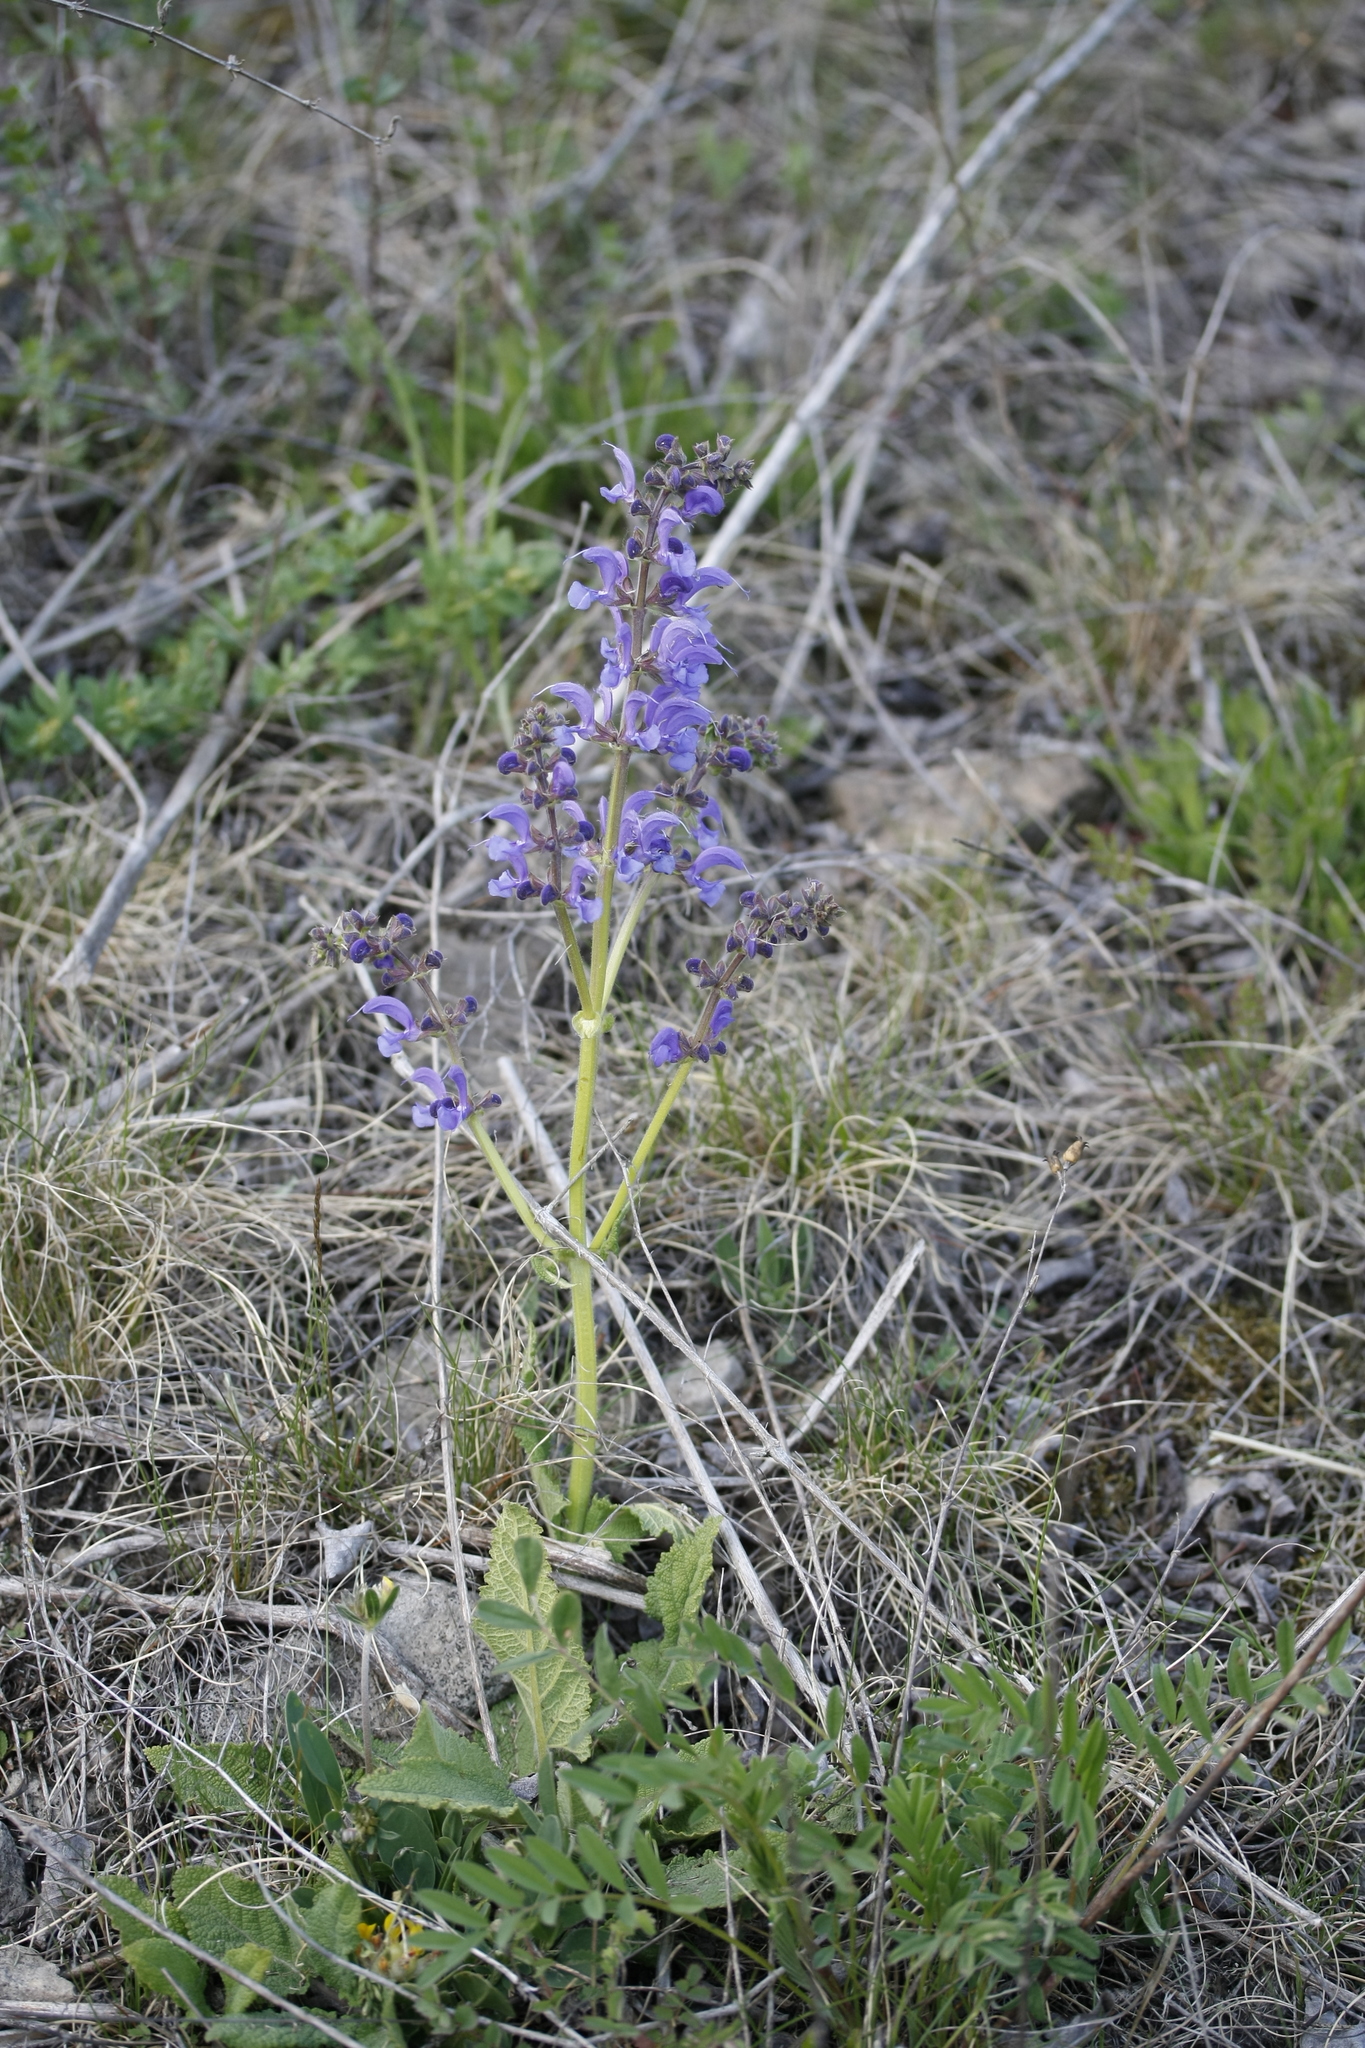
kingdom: Plantae
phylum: Tracheophyta
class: Magnoliopsida
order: Lamiales
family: Lamiaceae
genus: Salvia
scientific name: Salvia pratensis
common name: Meadow sage
